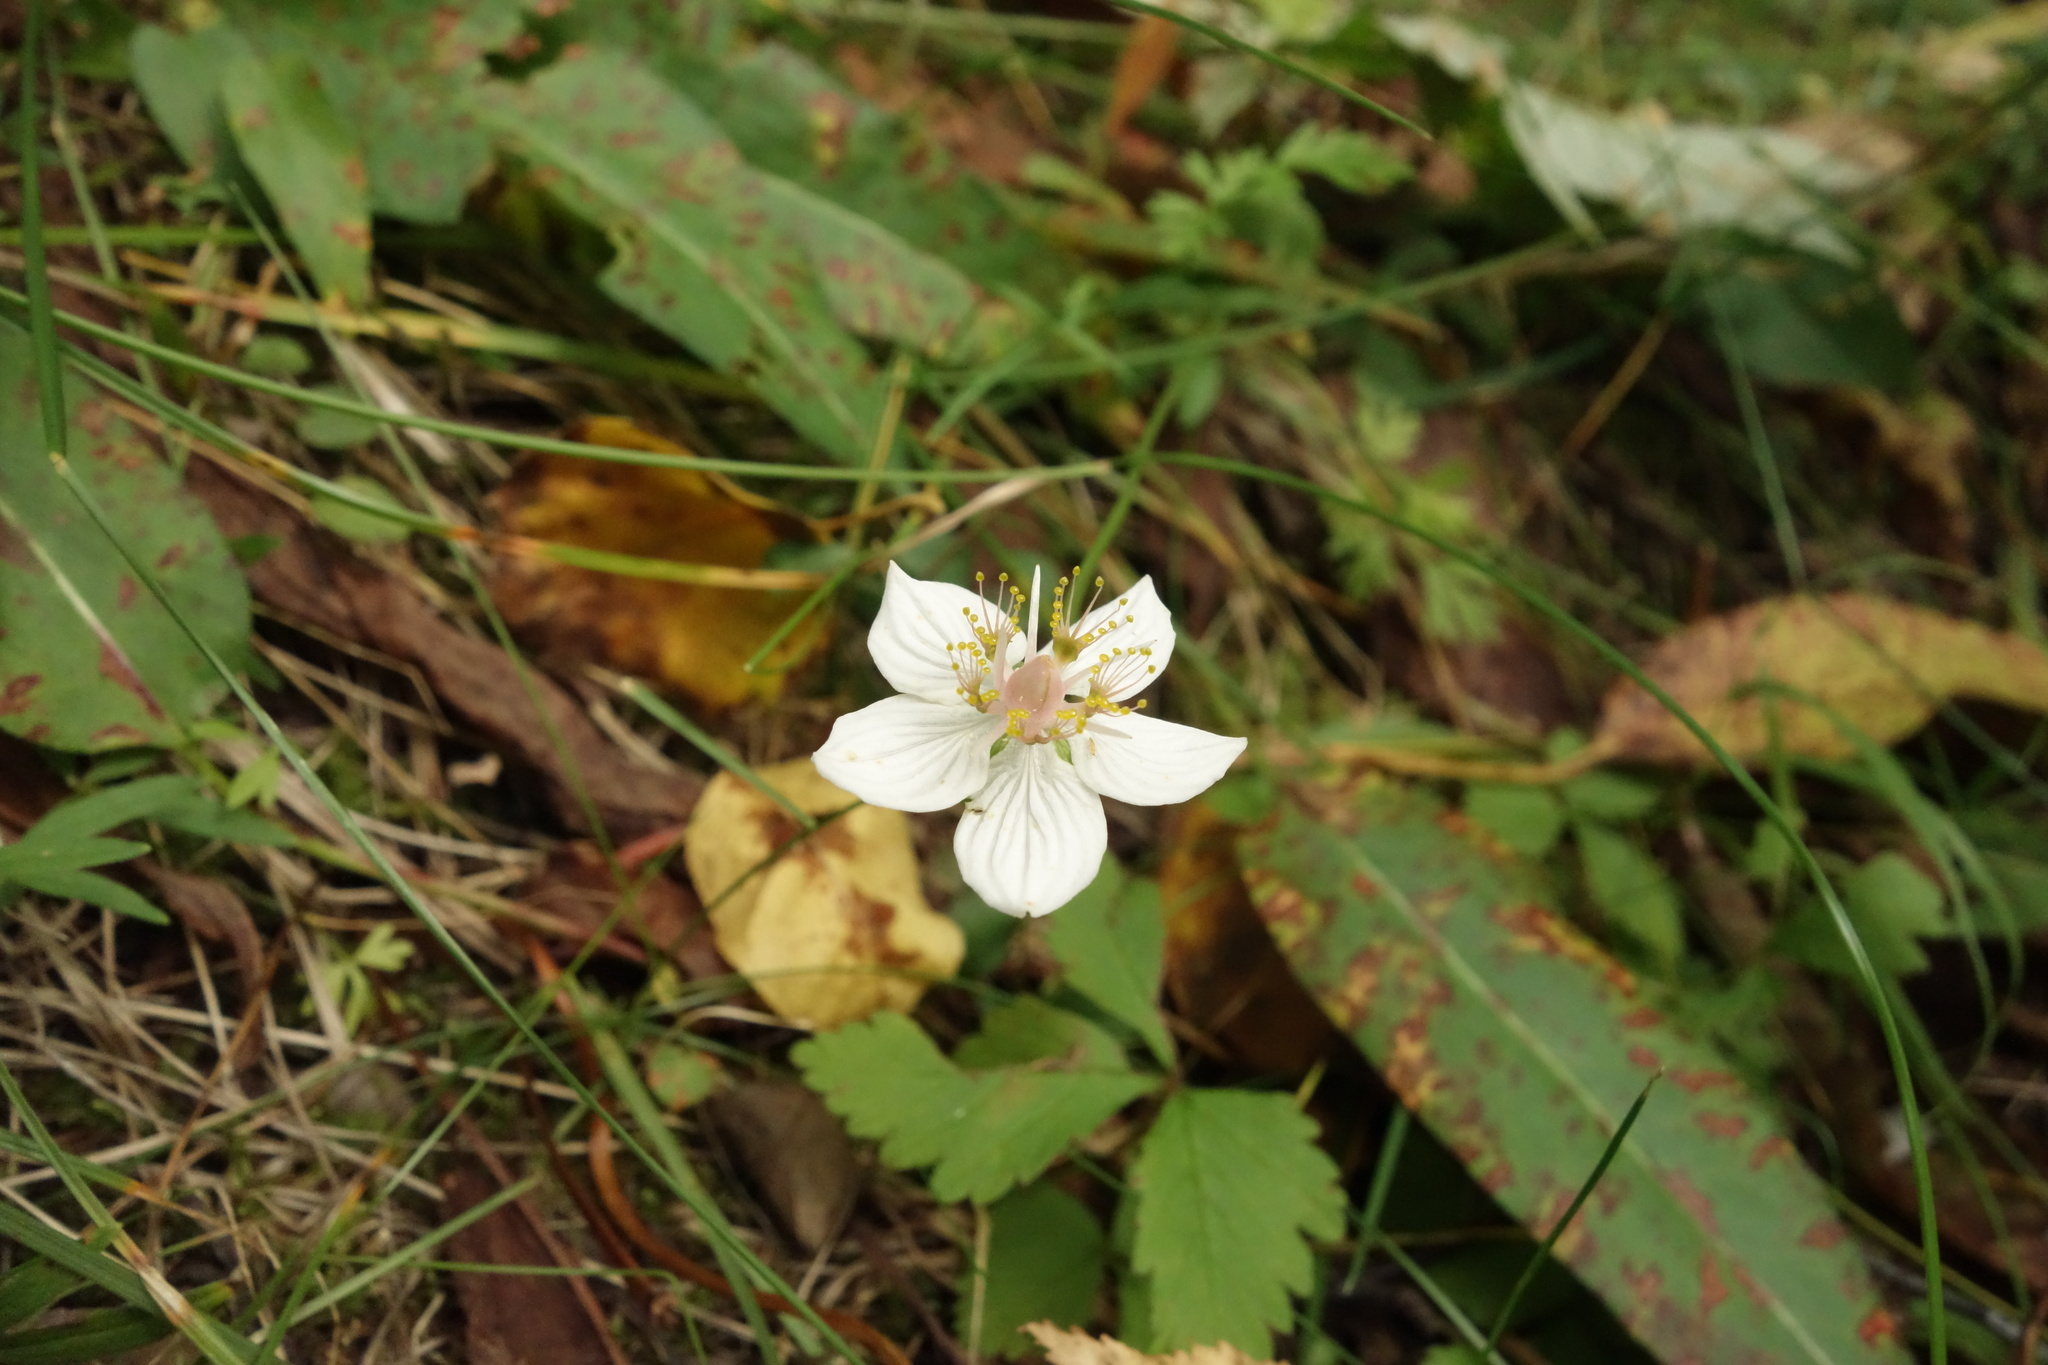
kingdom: Plantae
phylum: Tracheophyta
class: Magnoliopsida
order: Celastrales
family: Parnassiaceae
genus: Parnassia
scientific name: Parnassia palustris
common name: Grass-of-parnassus
